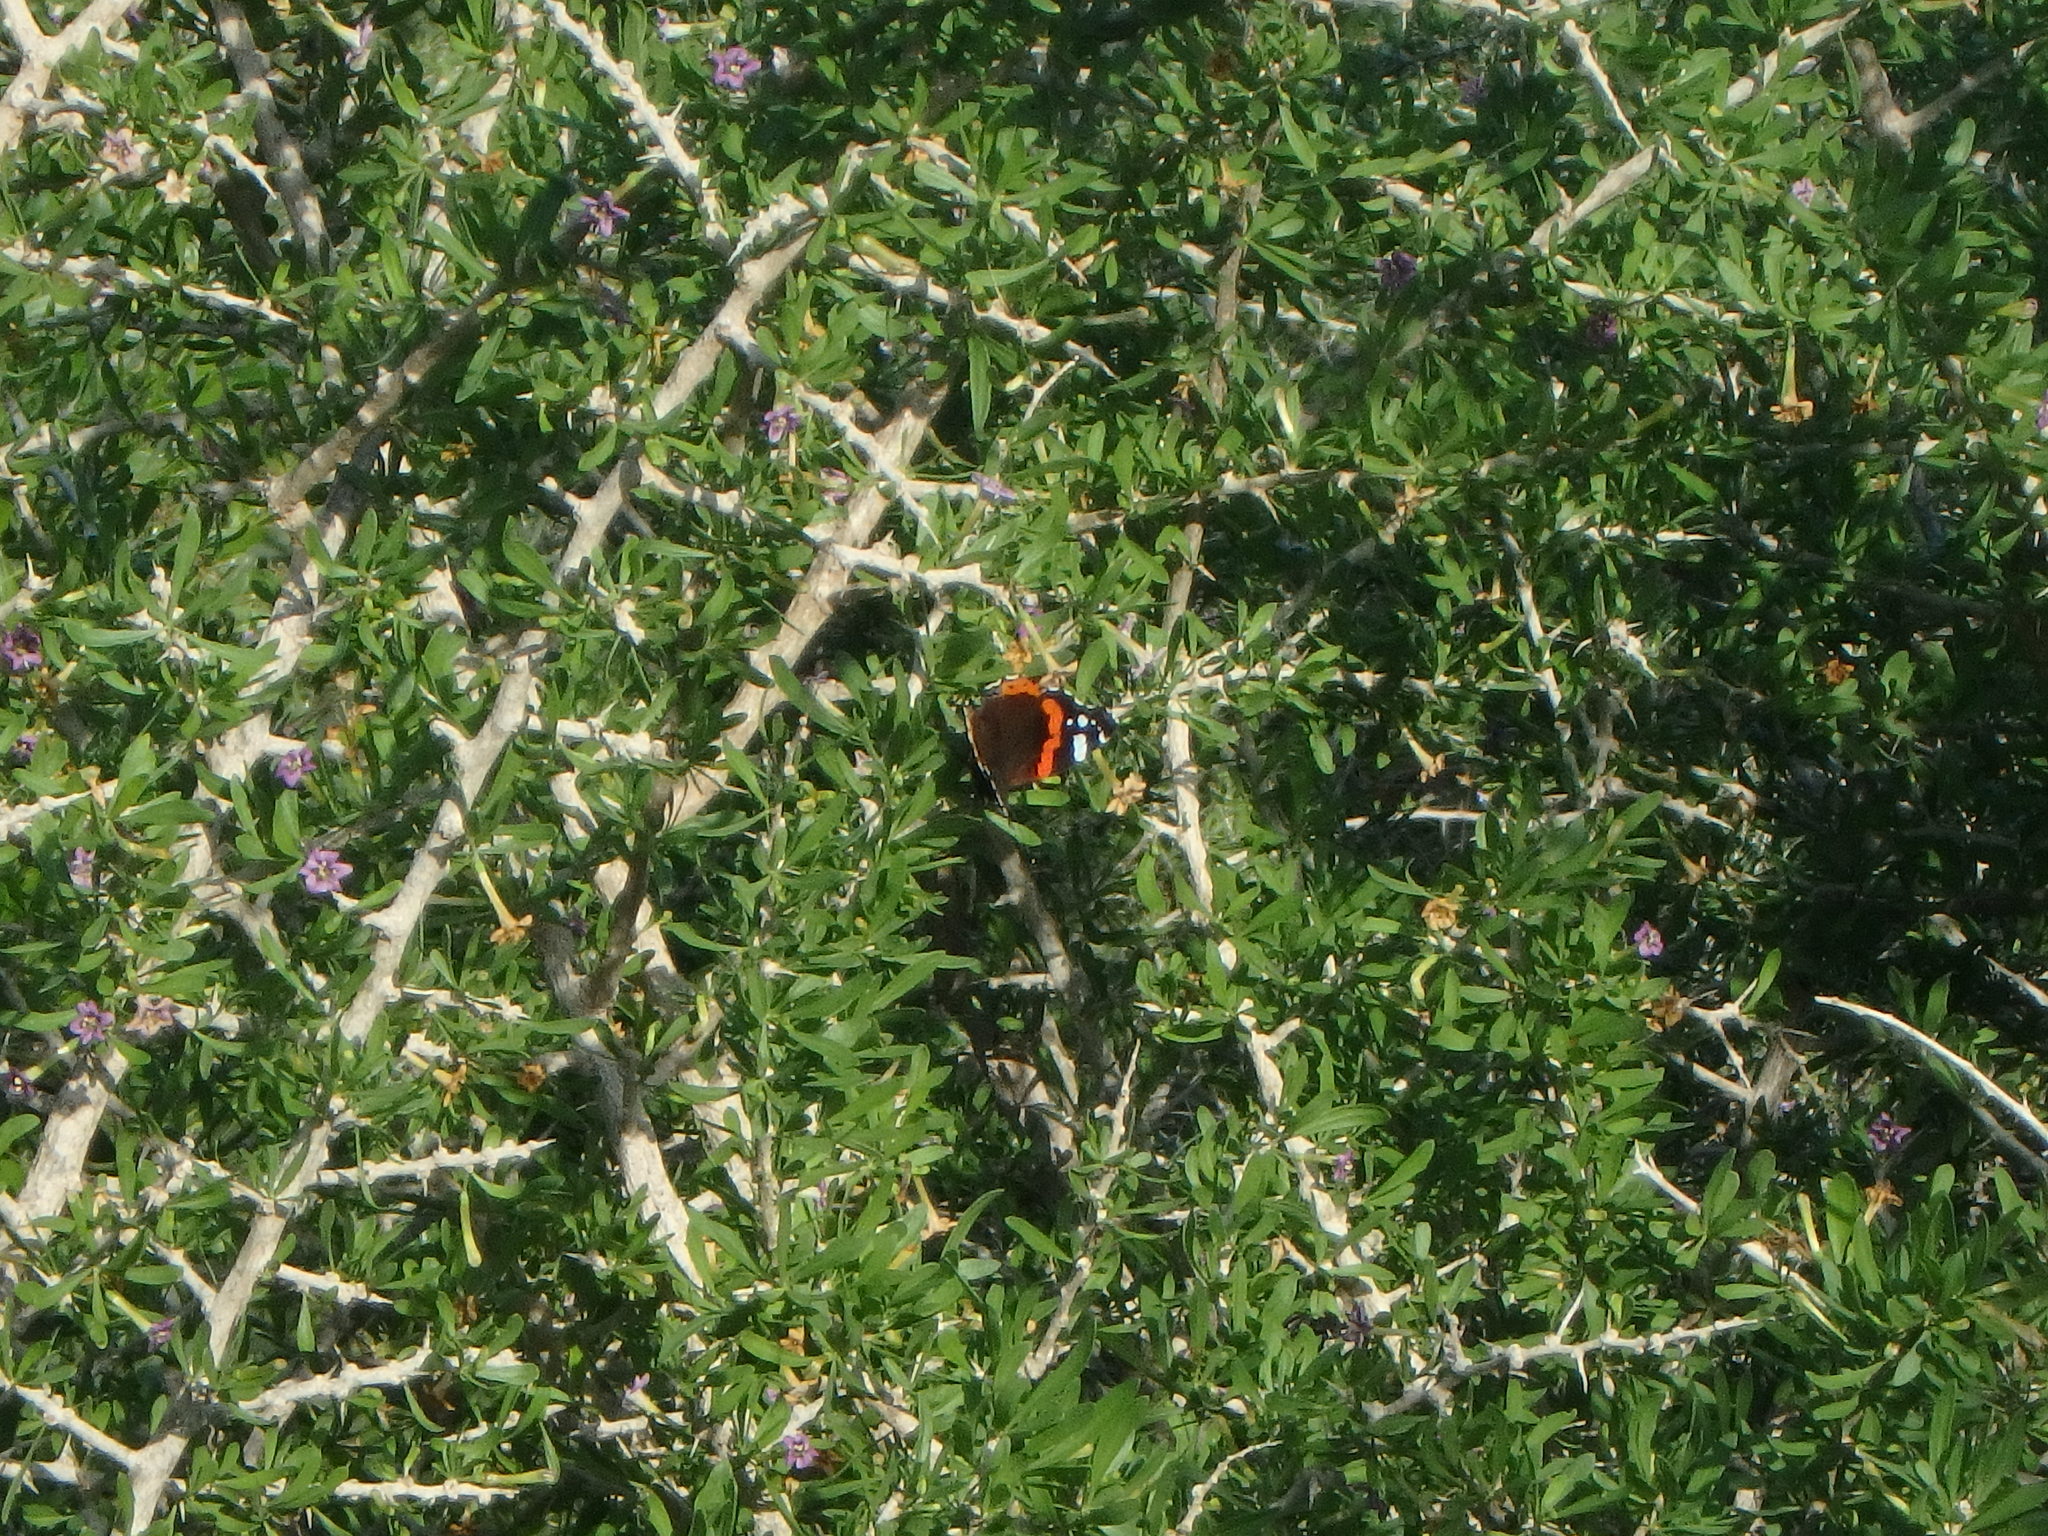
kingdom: Animalia
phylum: Arthropoda
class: Insecta
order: Lepidoptera
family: Nymphalidae
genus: Vanessa
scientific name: Vanessa atalanta
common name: Red admiral
